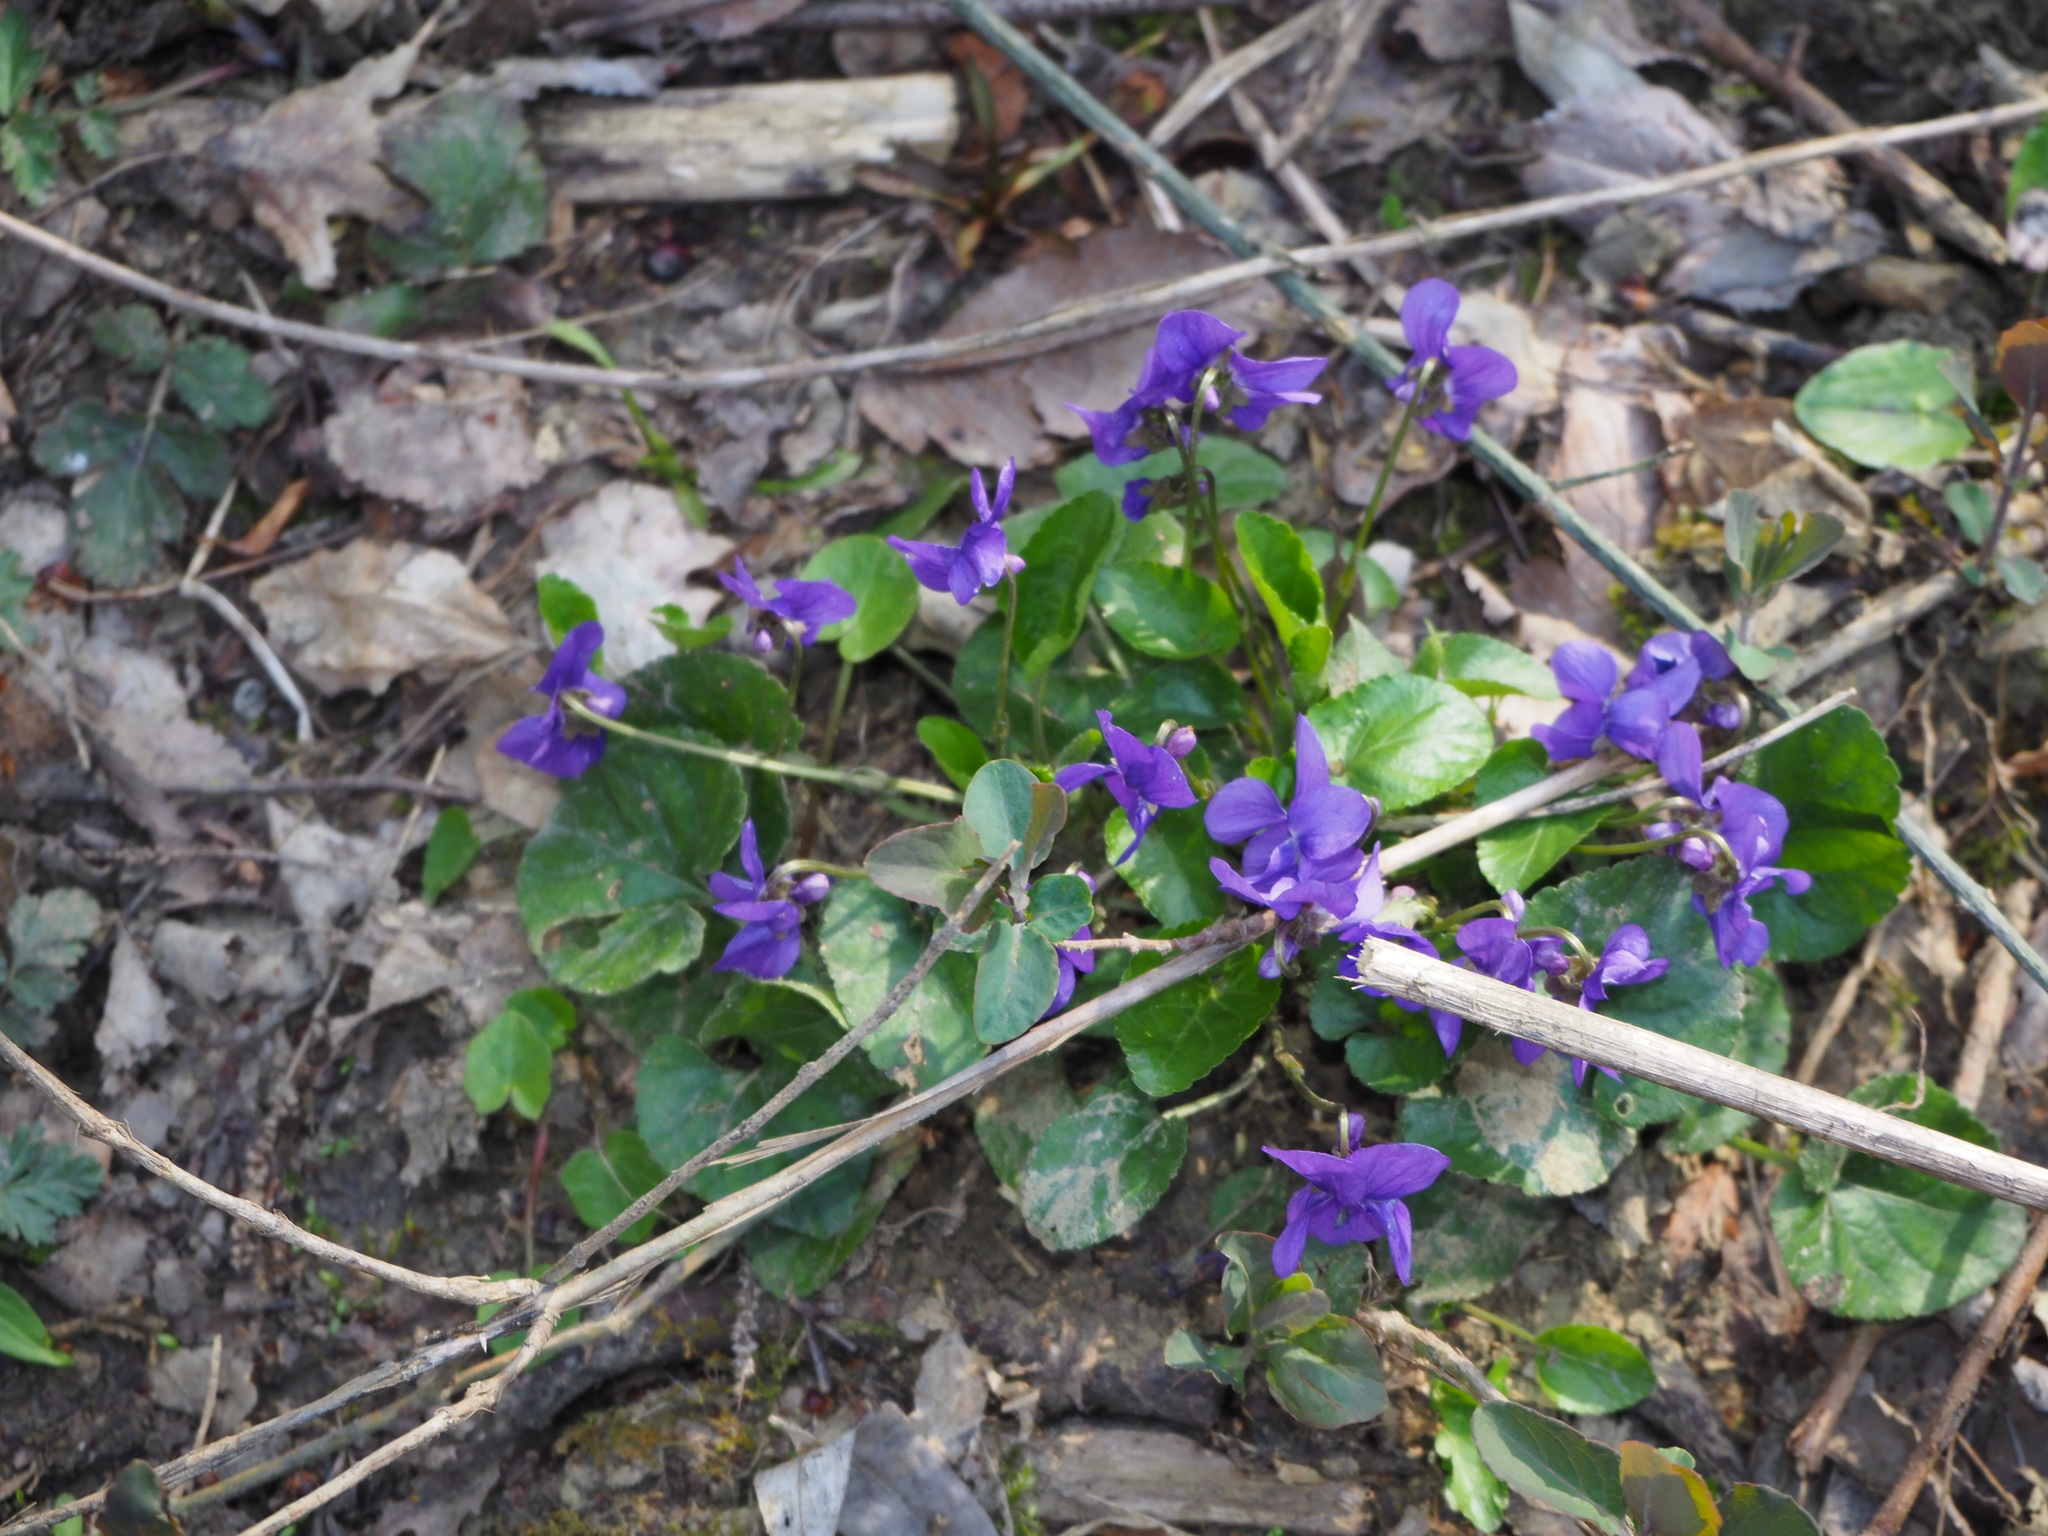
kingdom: Plantae
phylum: Tracheophyta
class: Magnoliopsida
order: Malpighiales
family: Violaceae
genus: Viola
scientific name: Viola odorata
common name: Sweet violet
